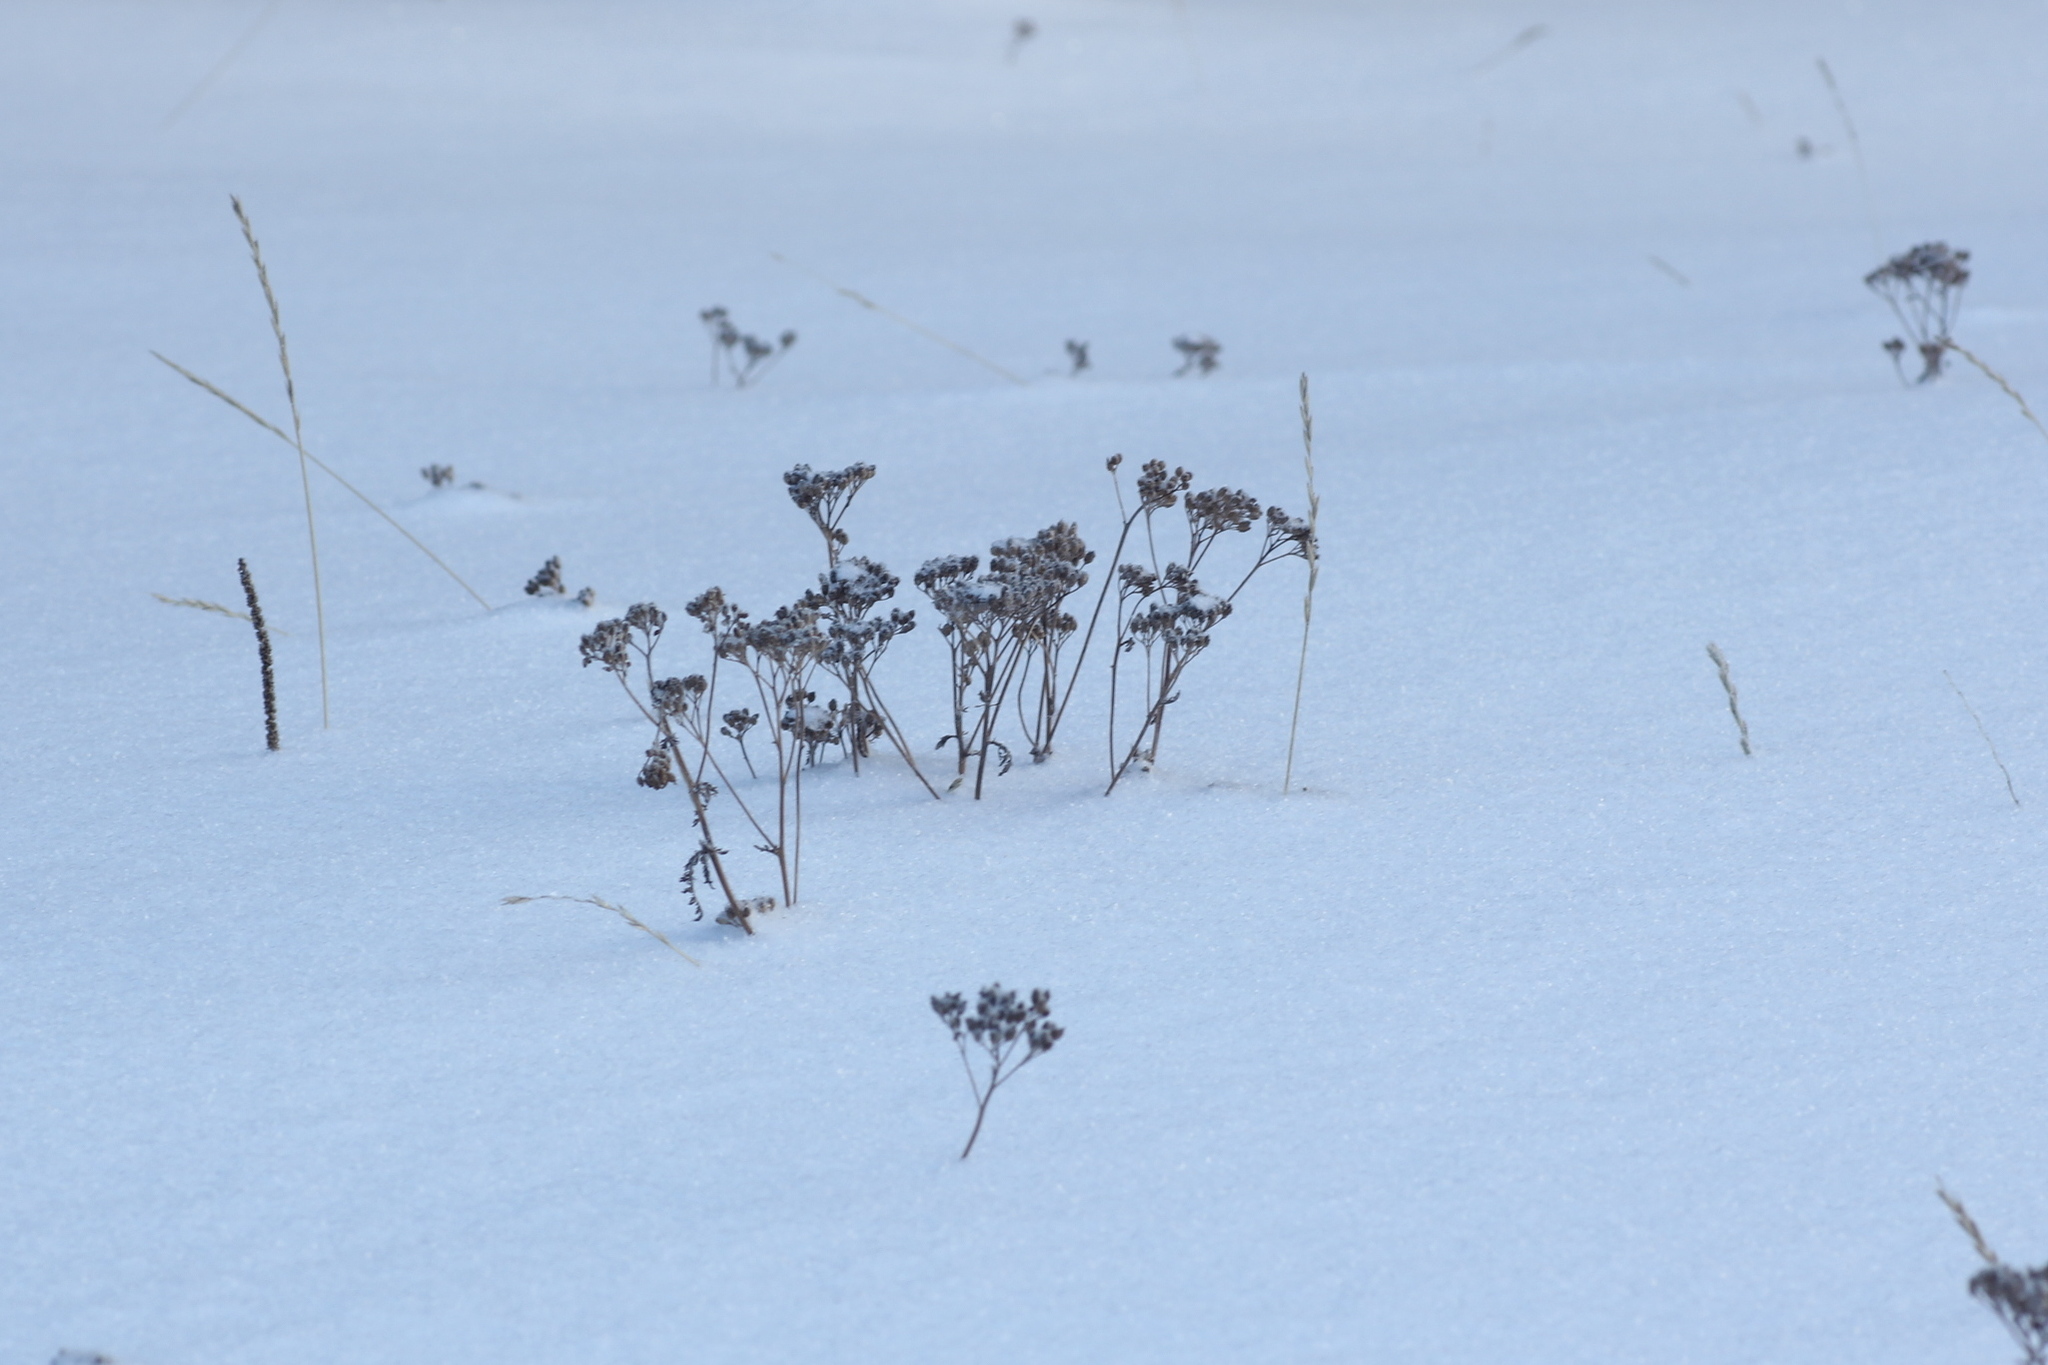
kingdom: Plantae
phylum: Tracheophyta
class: Magnoliopsida
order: Asterales
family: Asteraceae
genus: Achillea
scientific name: Achillea asiatica
